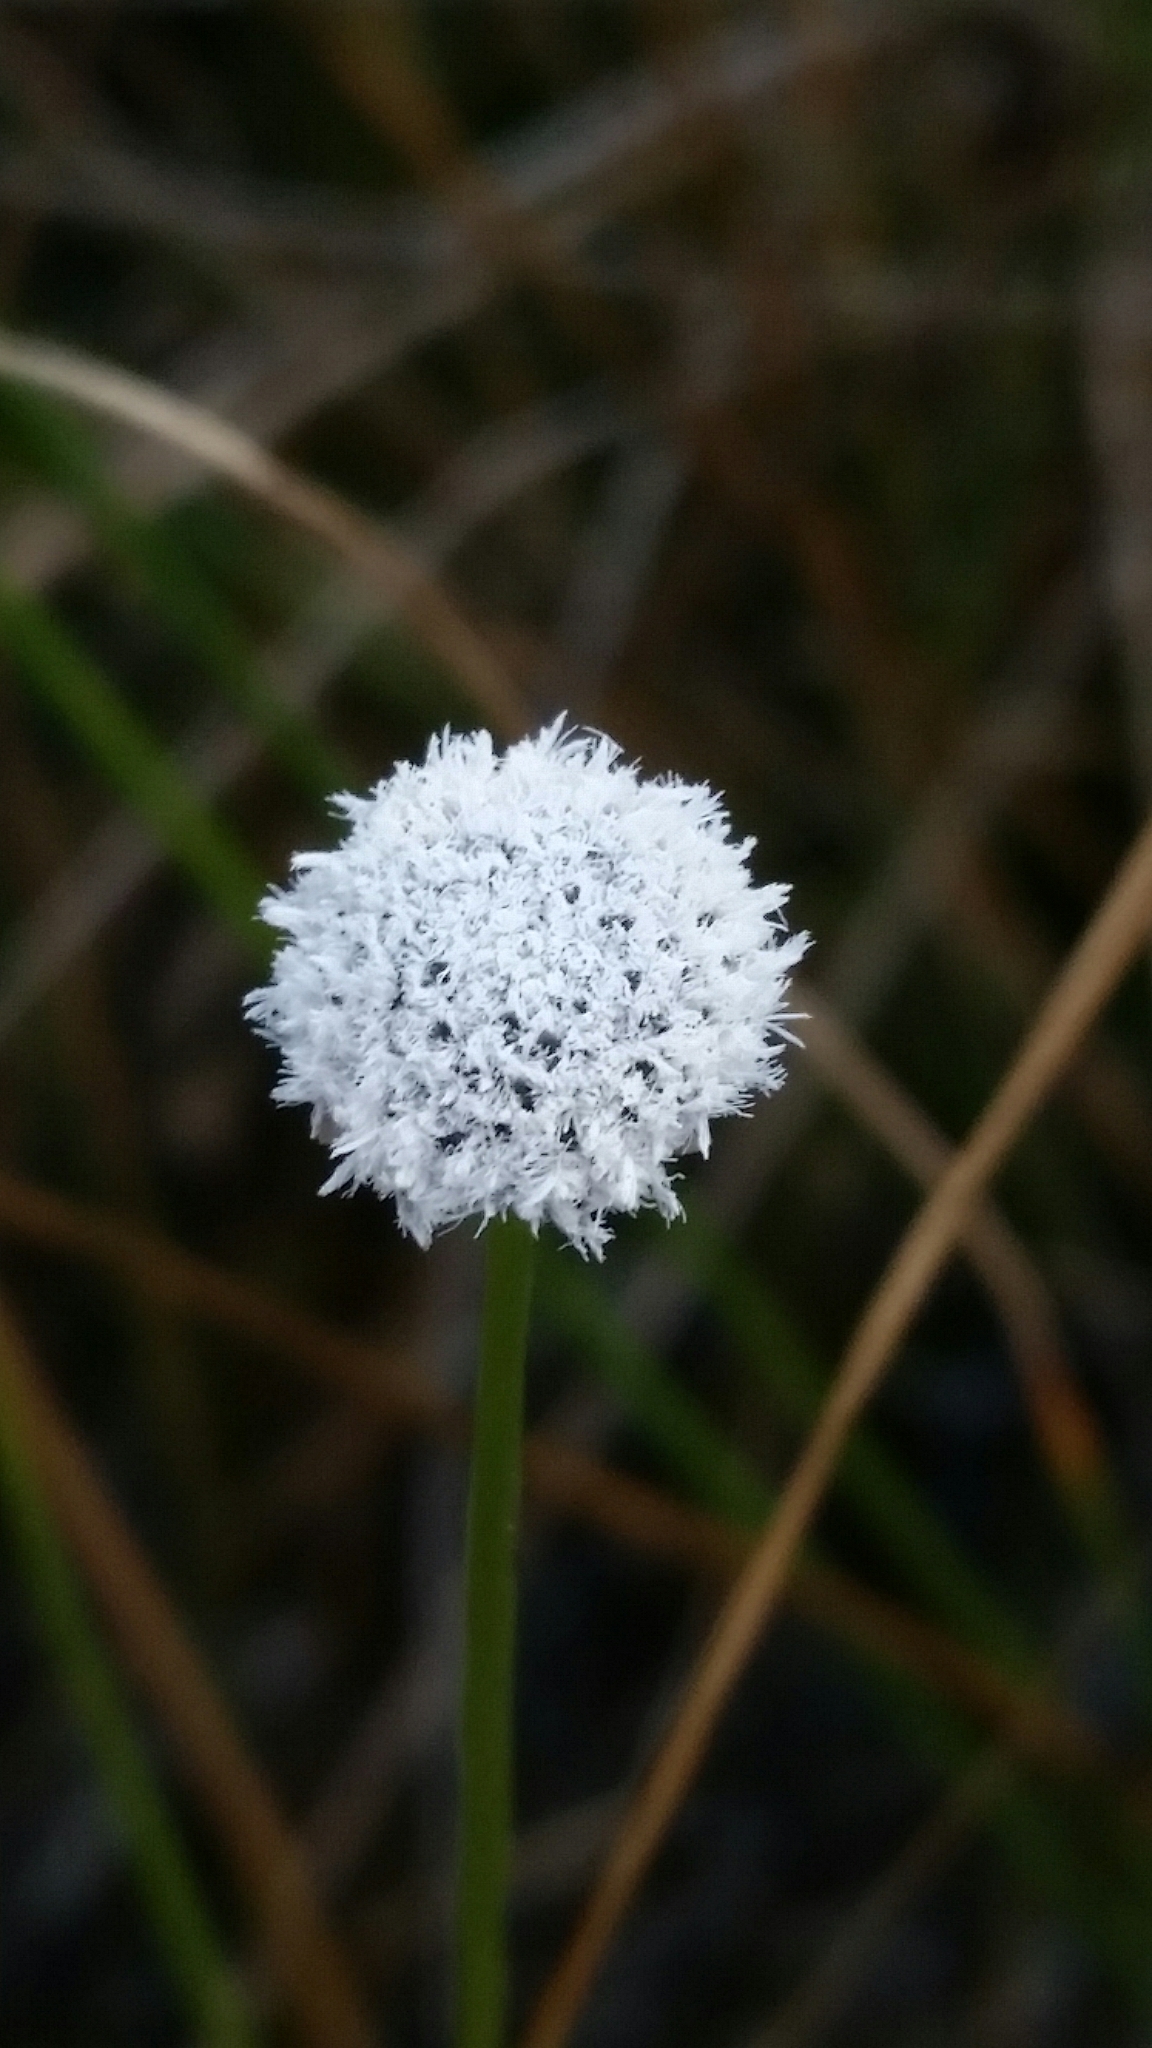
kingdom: Plantae
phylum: Tracheophyta
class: Liliopsida
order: Poales
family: Eriocaulaceae
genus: Eriocaulon
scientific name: Eriocaulon compressum
